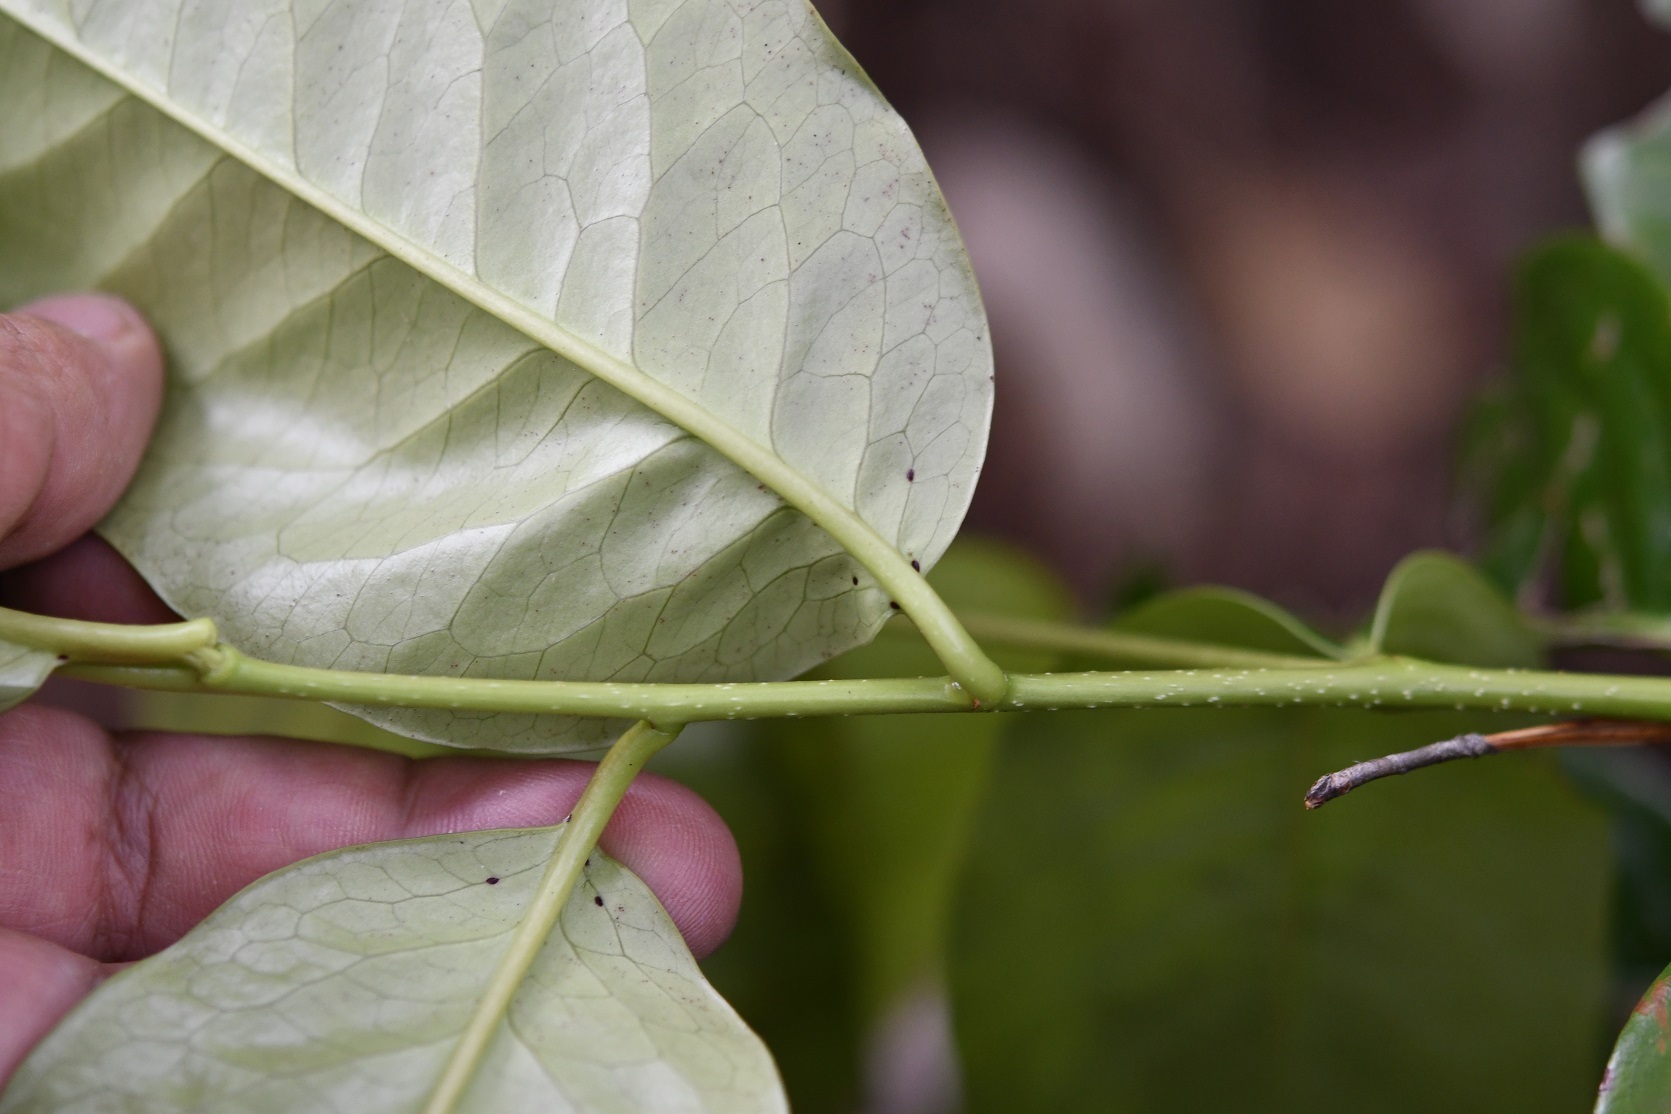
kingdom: Plantae
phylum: Tracheophyta
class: Magnoliopsida
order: Rosales
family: Rosaceae
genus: Prunus
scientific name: Prunus tetradenia
